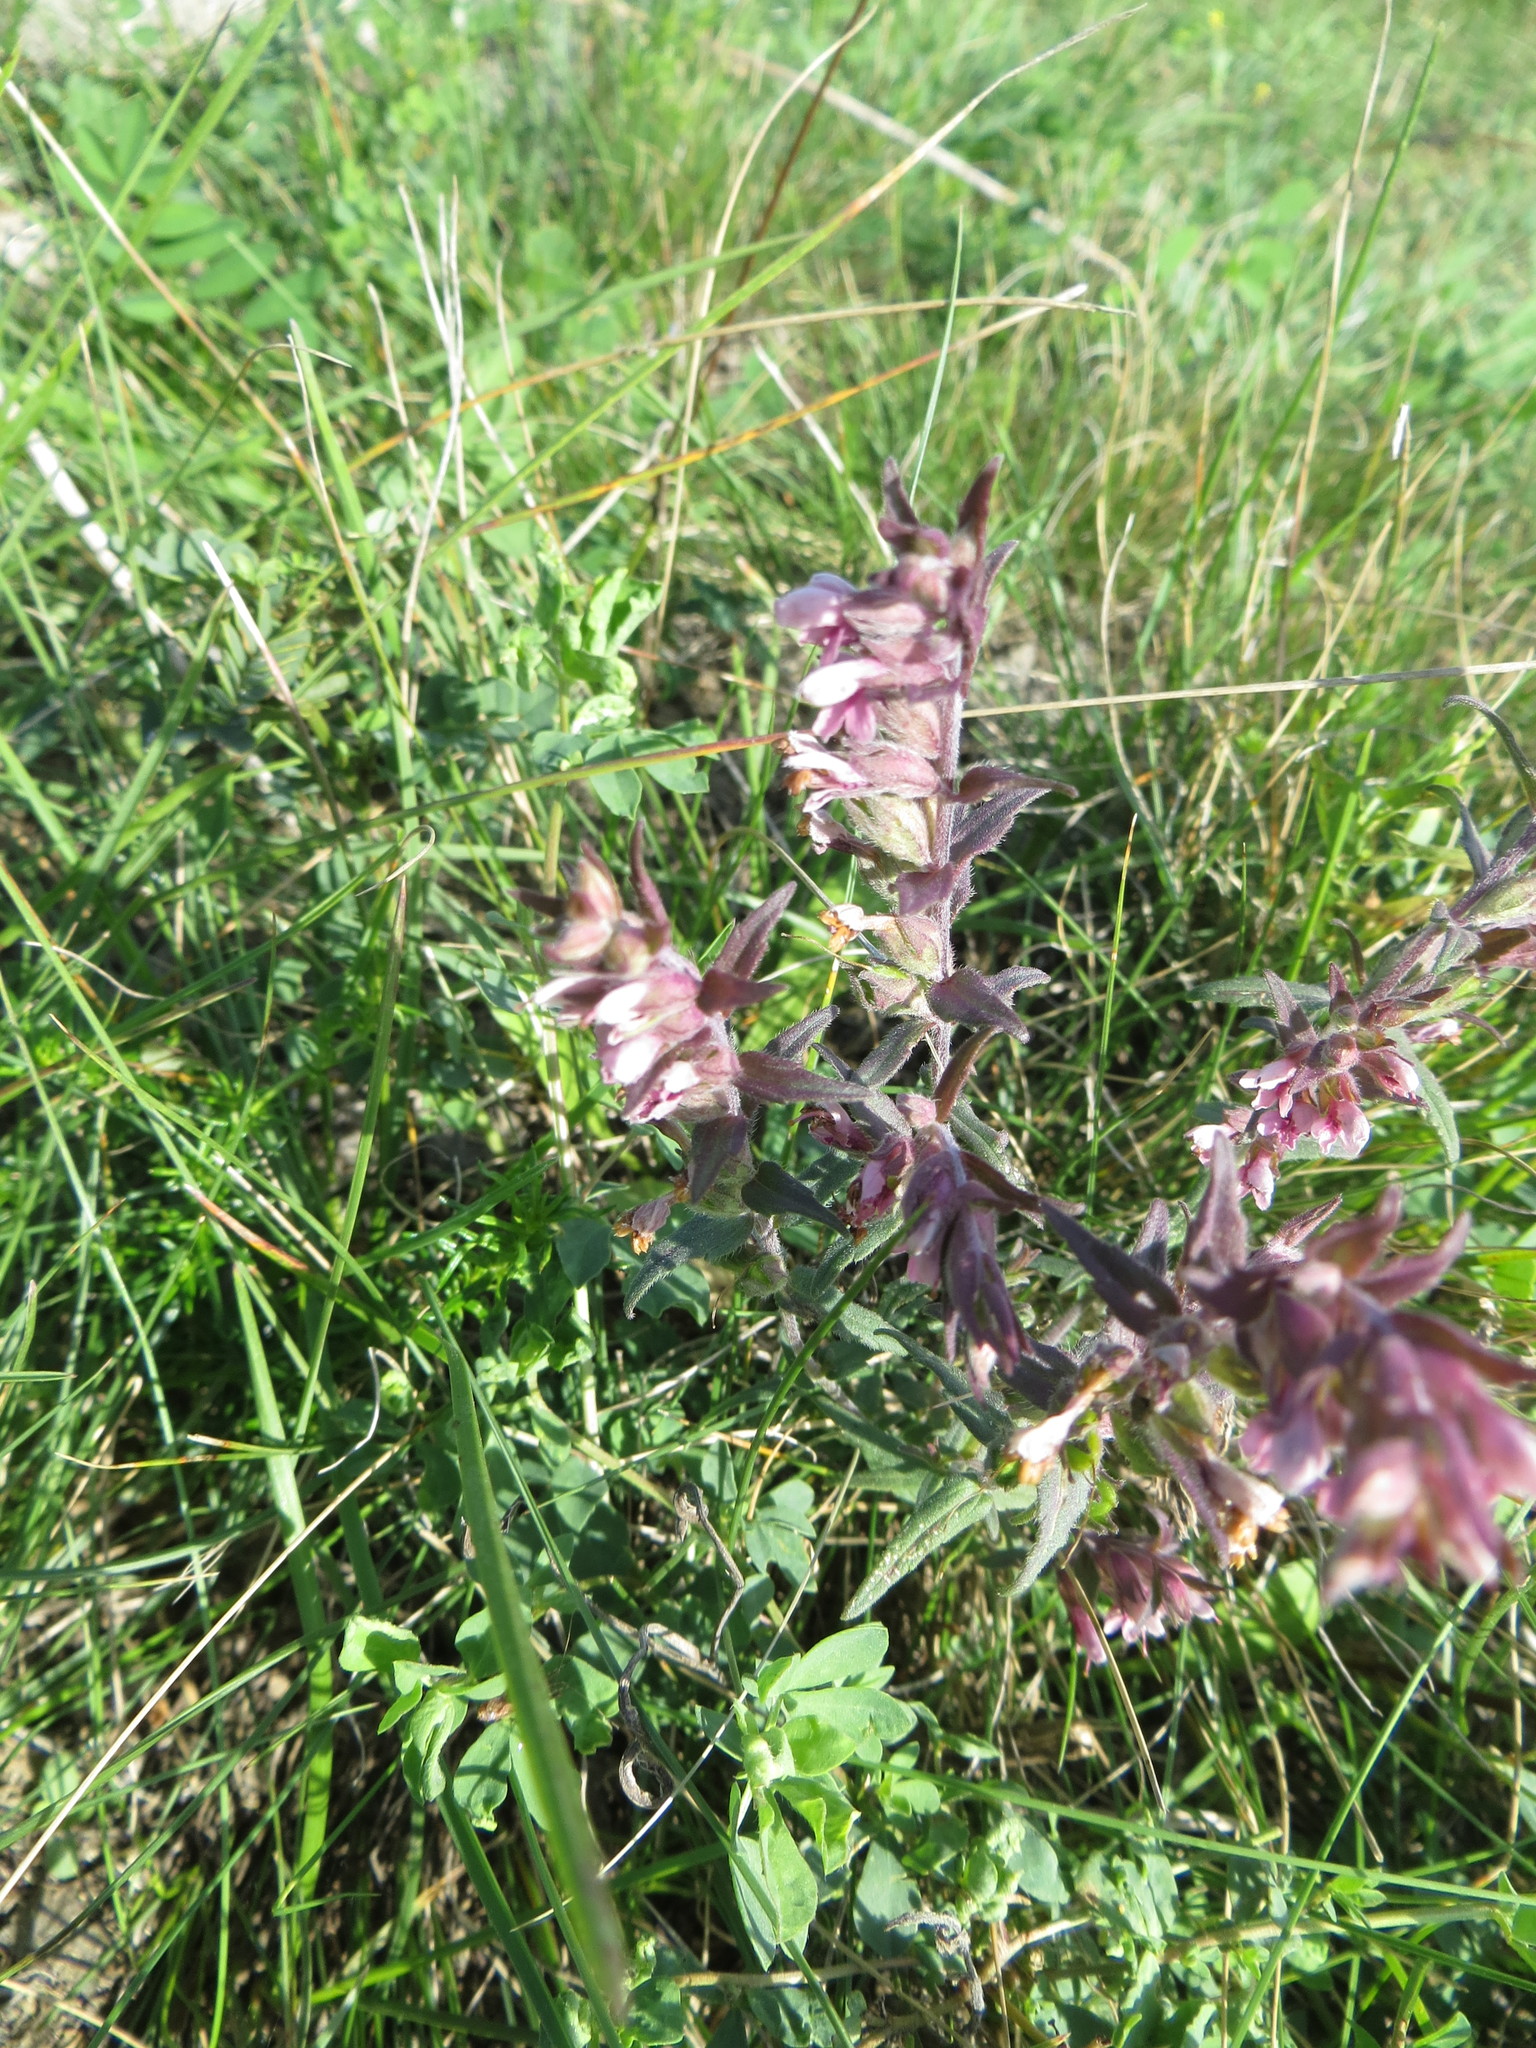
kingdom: Plantae
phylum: Tracheophyta
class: Magnoliopsida
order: Lamiales
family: Orobanchaceae
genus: Odontites
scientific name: Odontites vulgaris
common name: Broomrape
